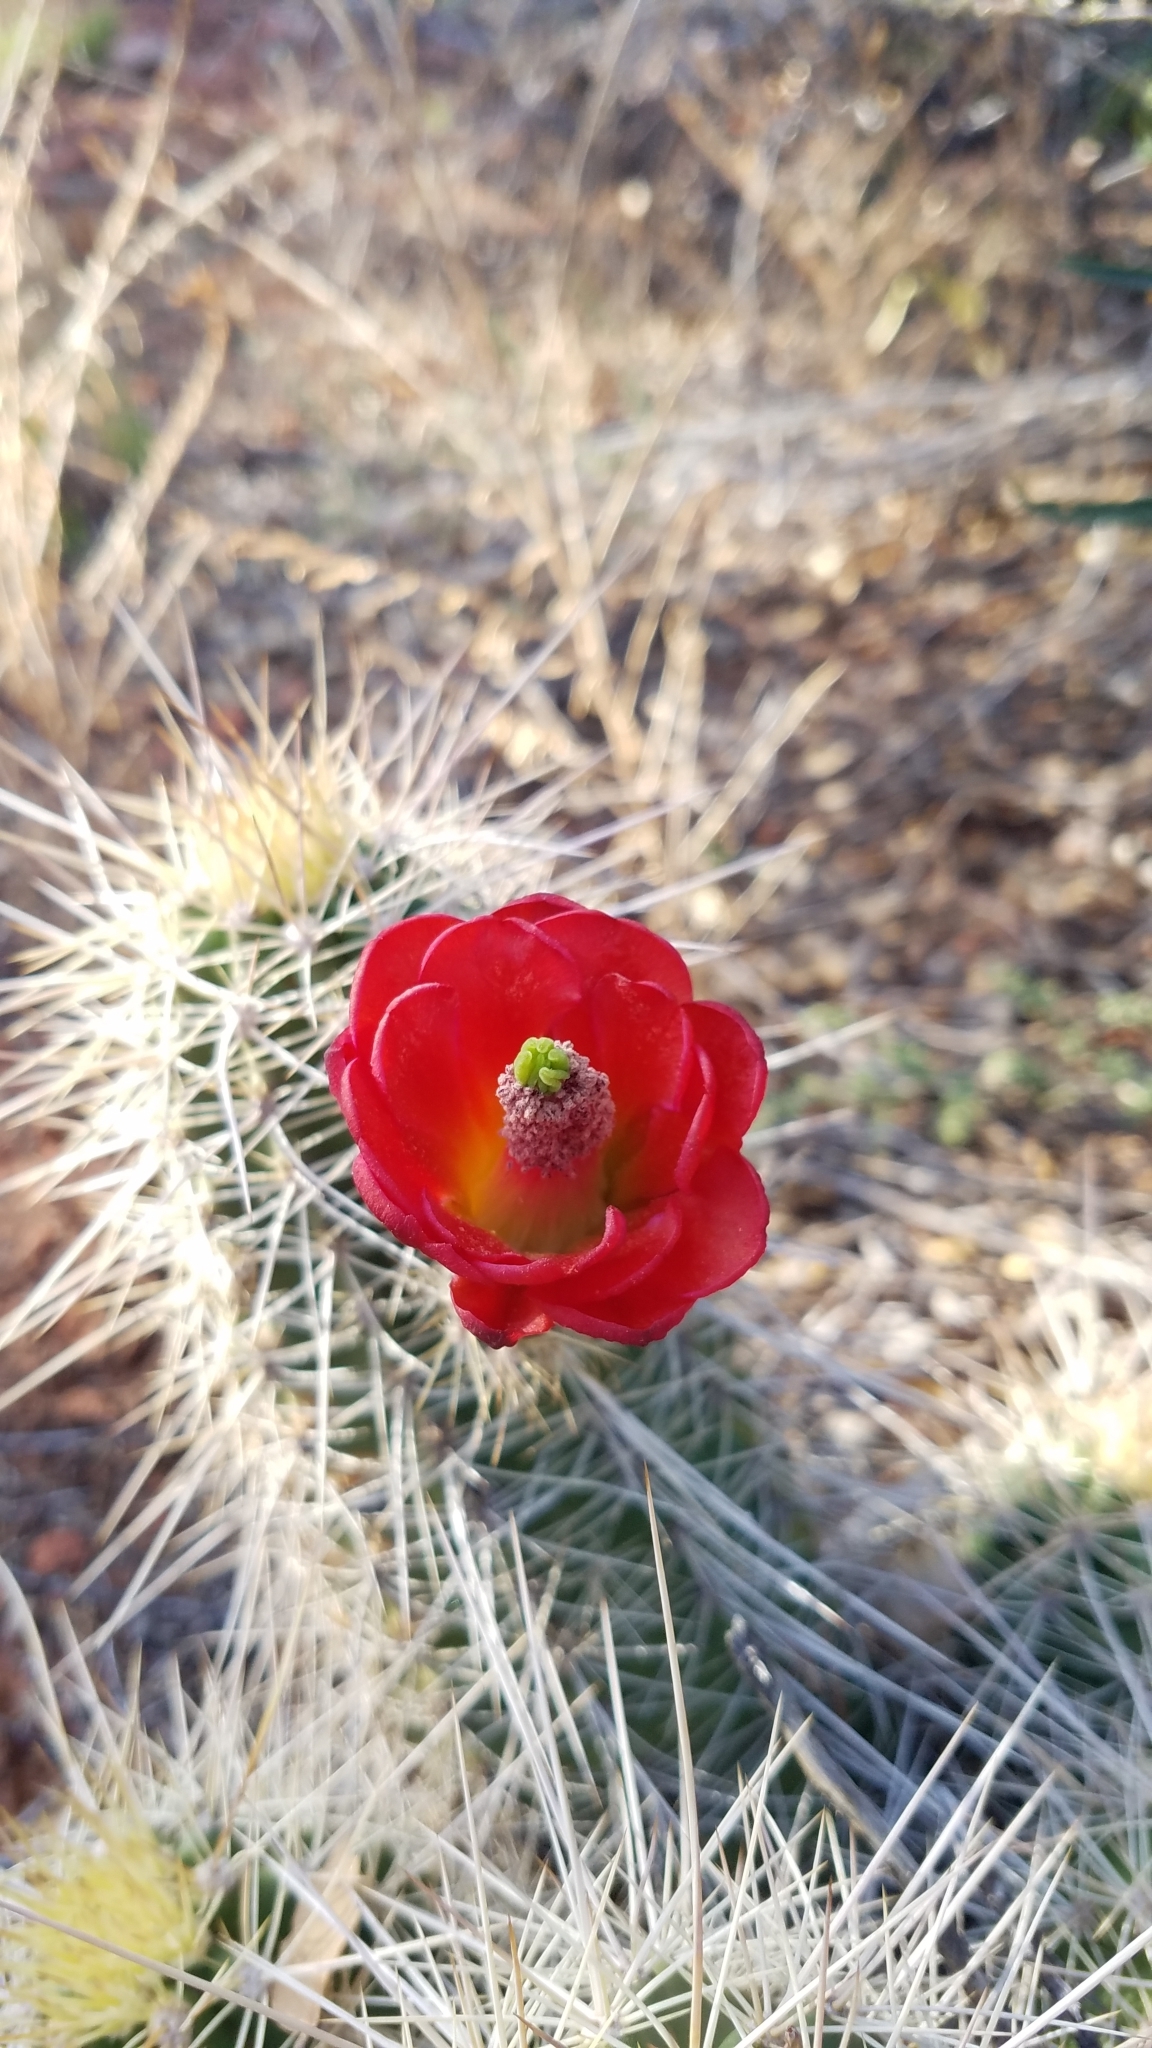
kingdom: Plantae
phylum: Tracheophyta
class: Magnoliopsida
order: Caryophyllales
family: Cactaceae
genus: Echinocereus
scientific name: Echinocereus bakeri
